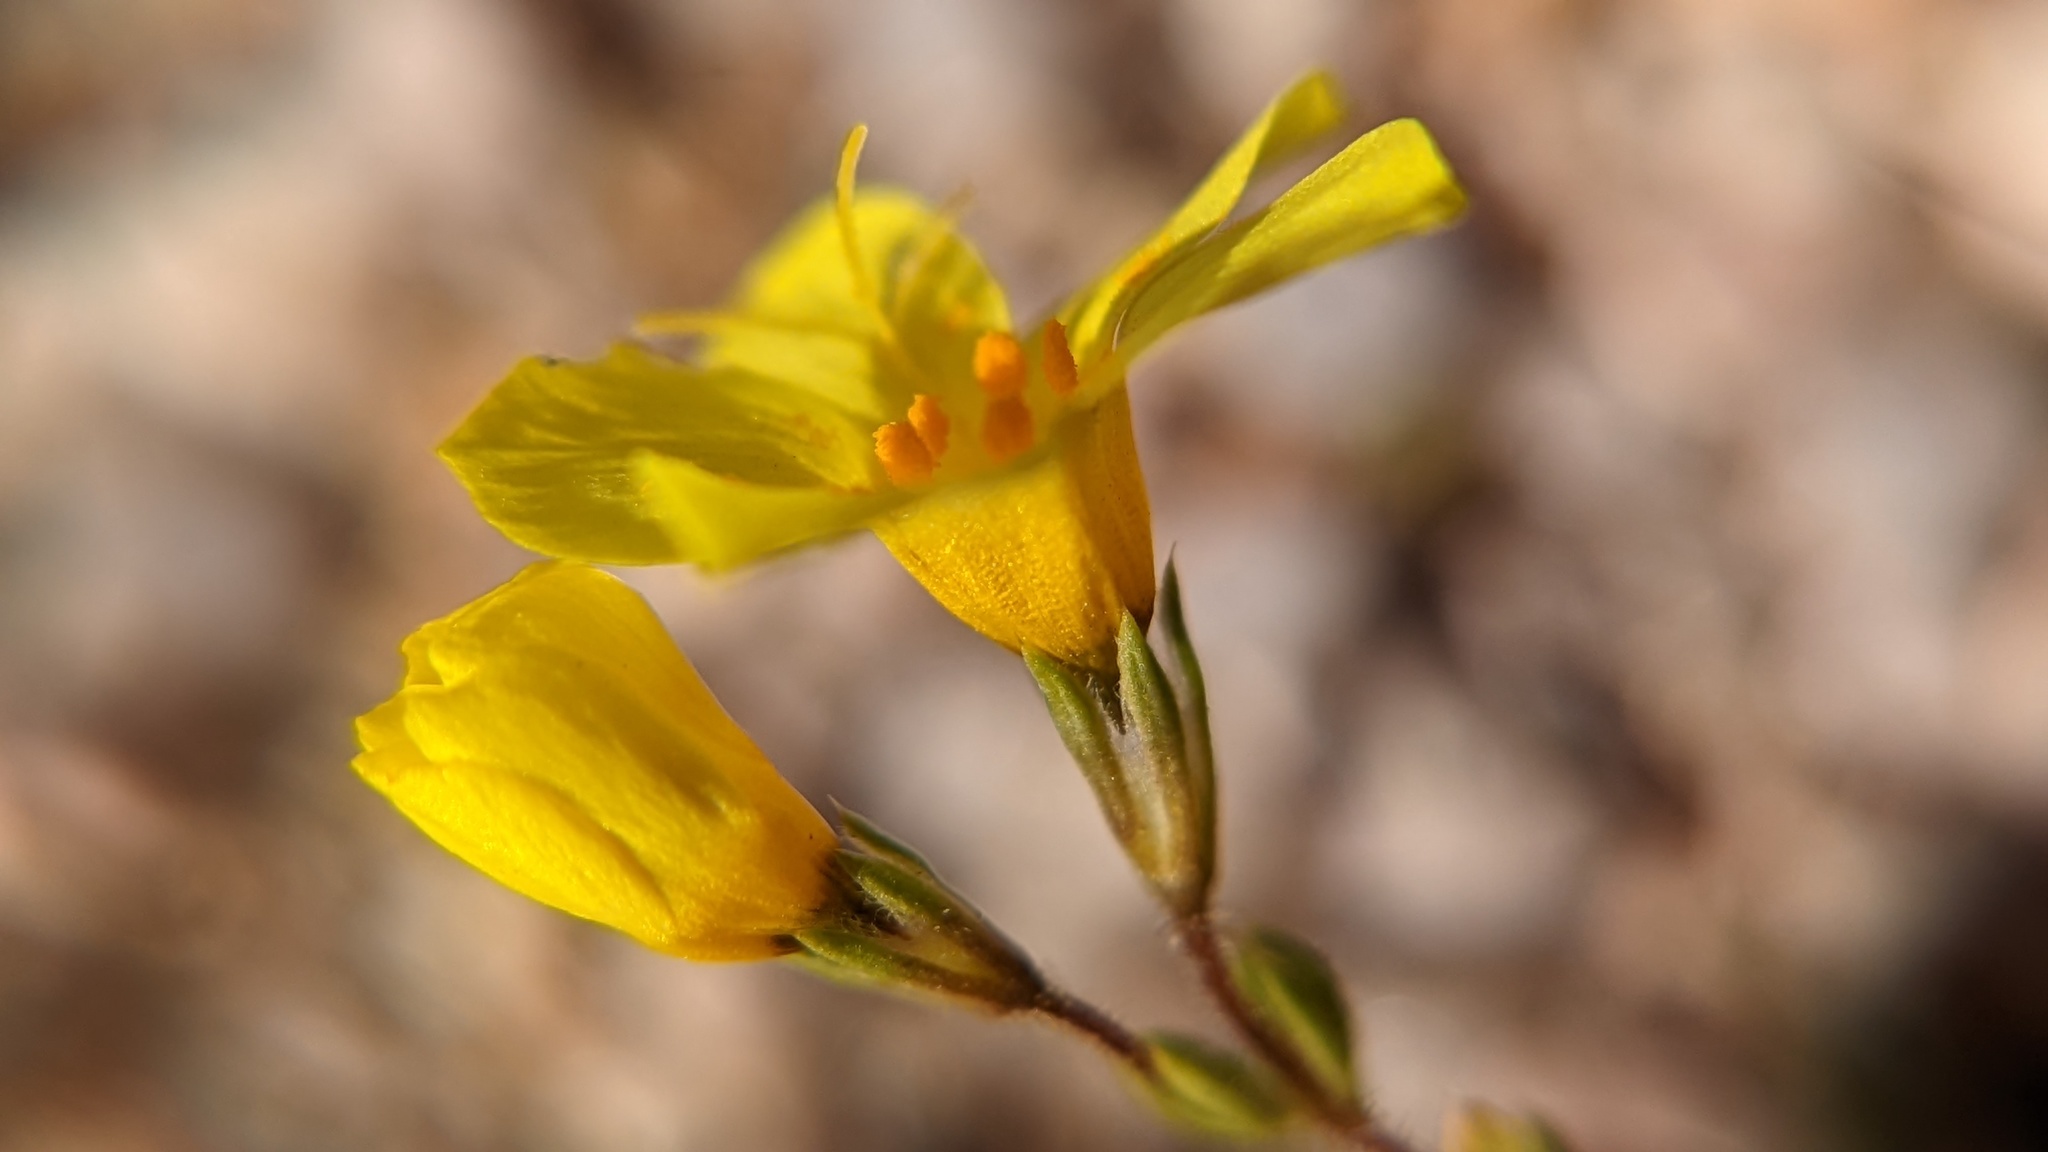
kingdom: Plantae
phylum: Tracheophyta
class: Magnoliopsida
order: Ericales
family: Polemoniaceae
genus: Leptosiphon
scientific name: Leptosiphon chrysanthus
